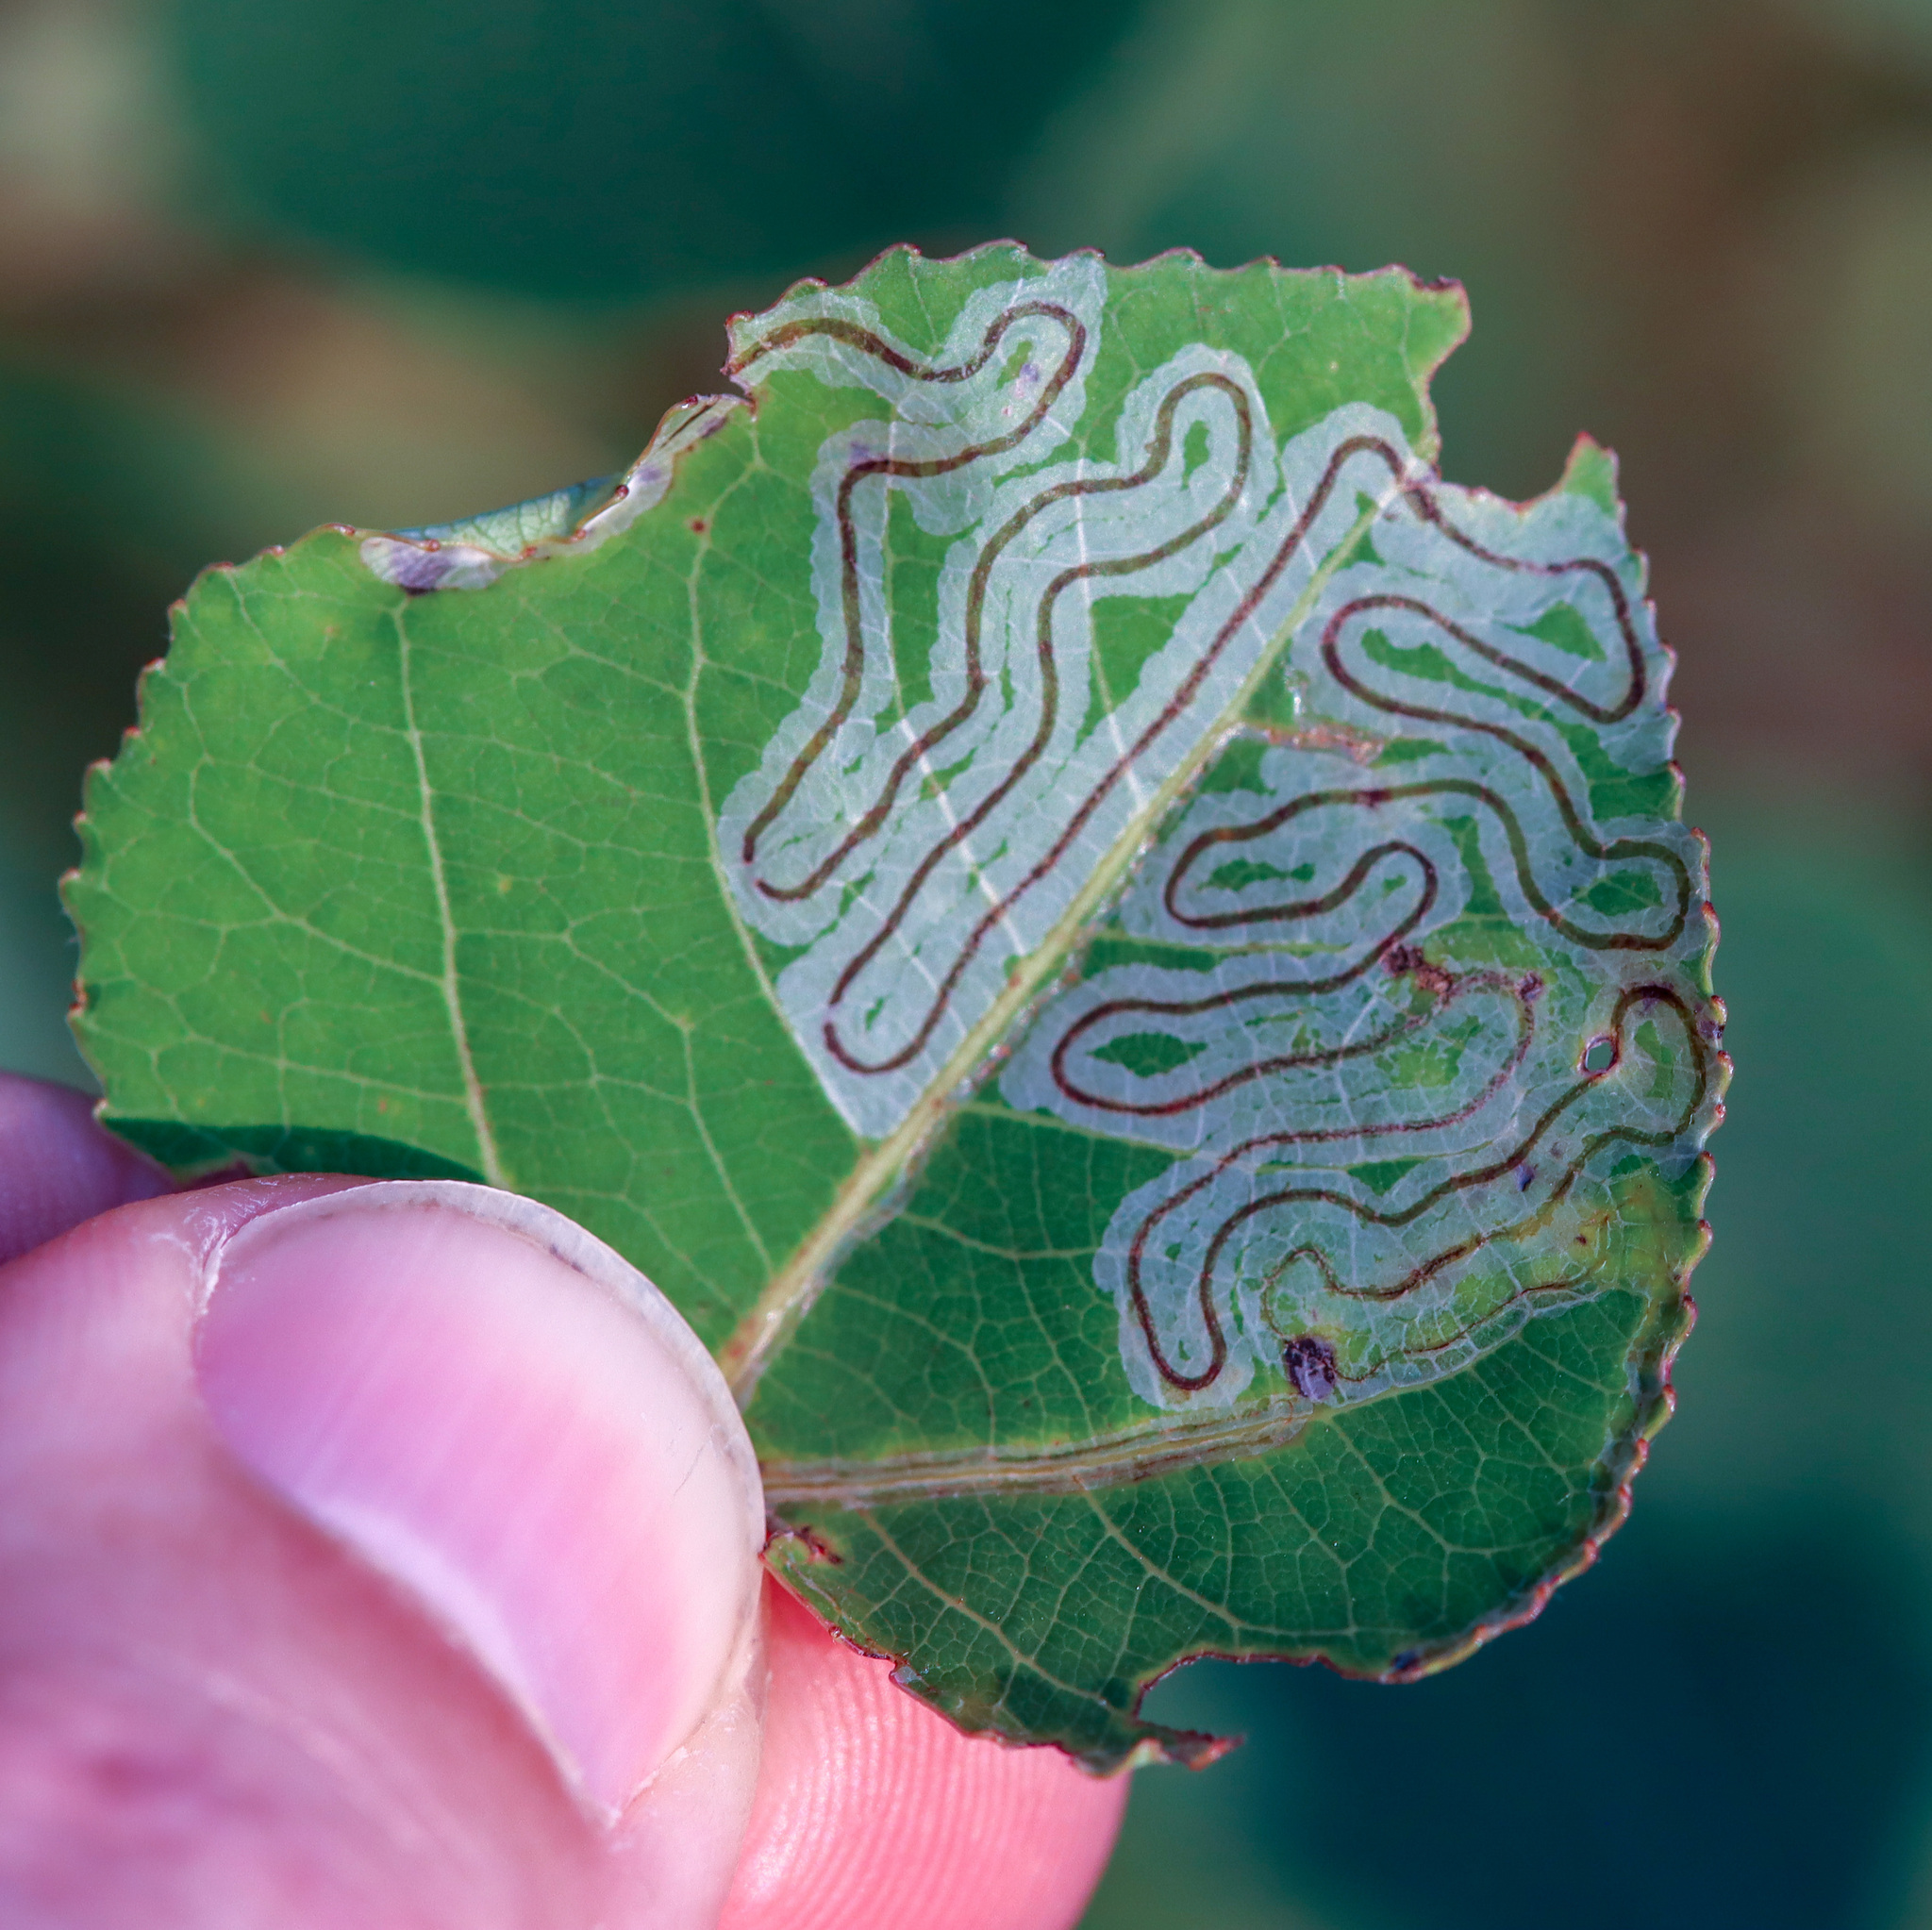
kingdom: Animalia
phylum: Arthropoda
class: Insecta
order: Lepidoptera
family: Gracillariidae
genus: Phyllocnistis
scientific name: Phyllocnistis populiella
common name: Aspen serpentine leafminer moth
